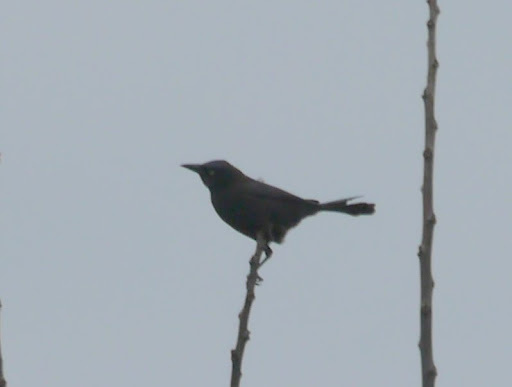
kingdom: Animalia
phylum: Chordata
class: Aves
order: Passeriformes
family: Icteridae
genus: Quiscalus
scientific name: Quiscalus quiscula
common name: Common grackle
